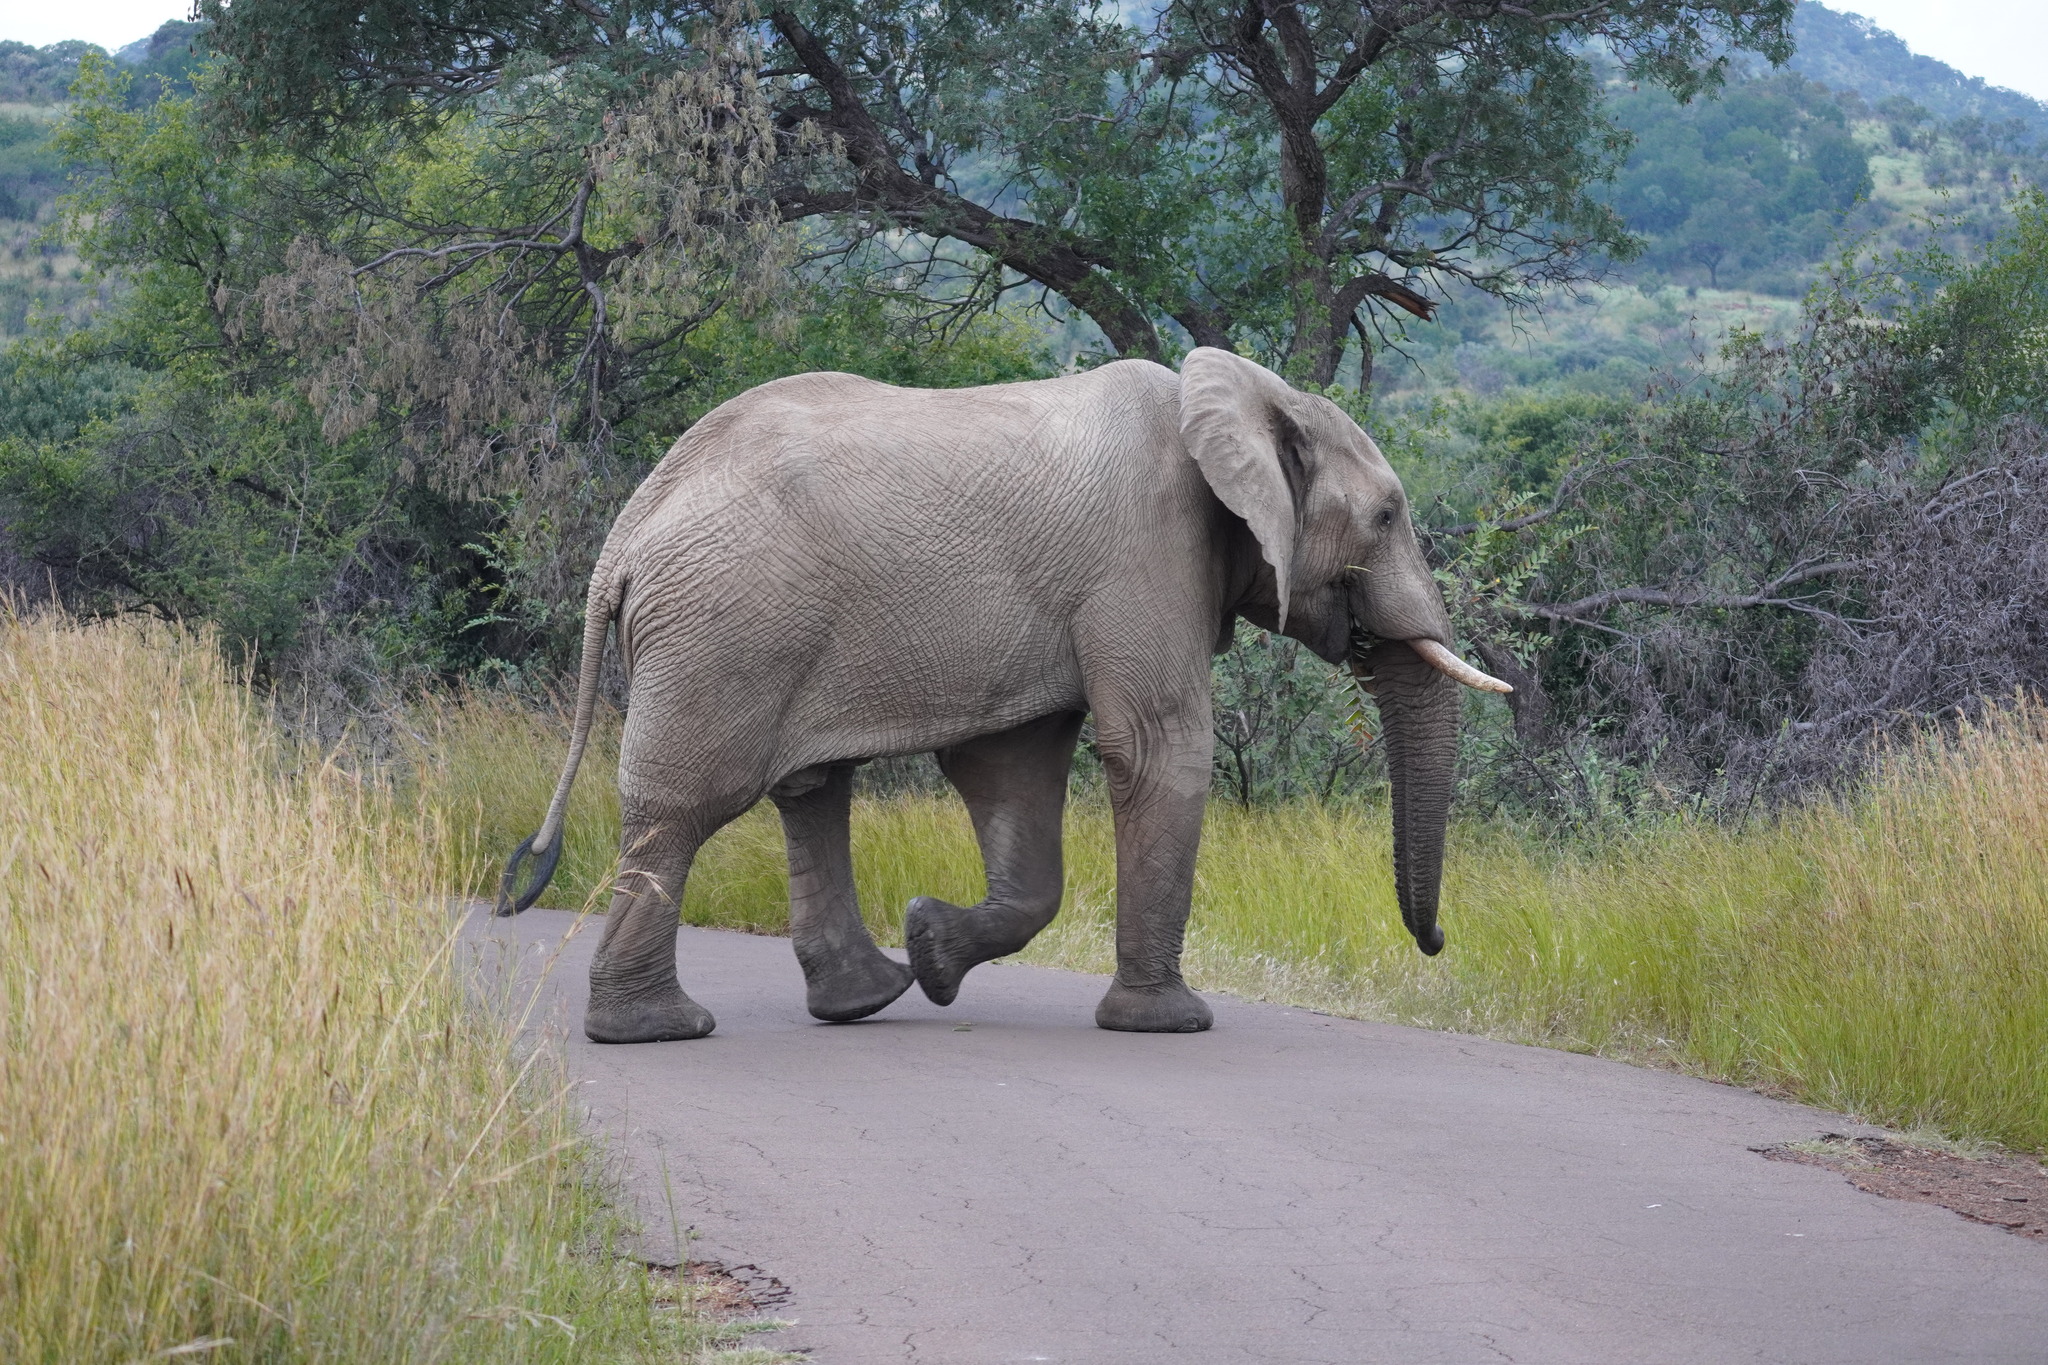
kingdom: Animalia
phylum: Chordata
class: Mammalia
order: Proboscidea
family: Elephantidae
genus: Loxodonta
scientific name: Loxodonta africana
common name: African elephant
